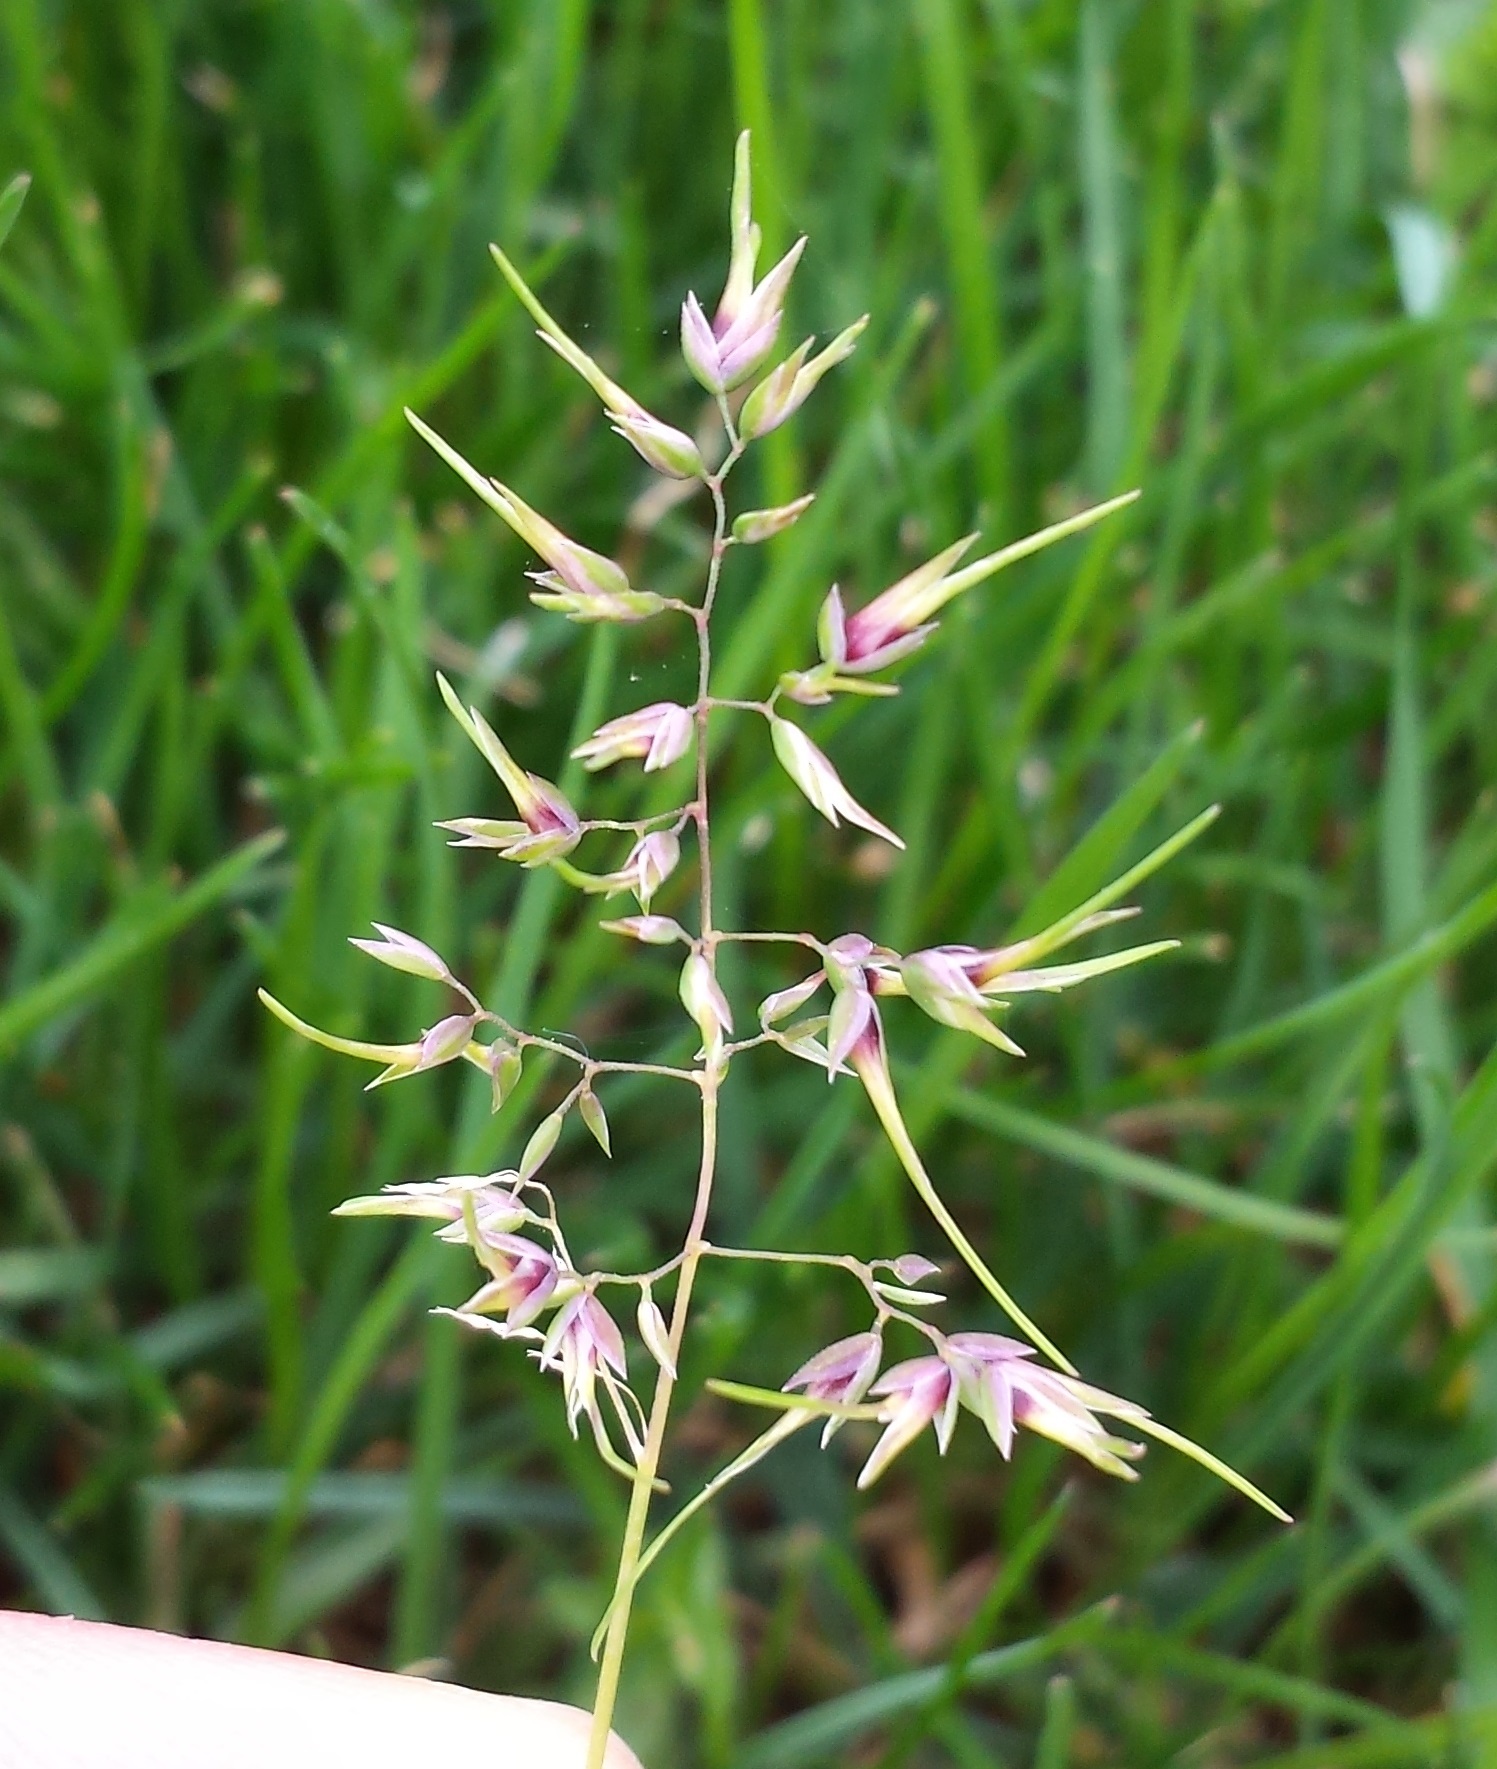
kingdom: Plantae
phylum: Tracheophyta
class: Liliopsida
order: Poales
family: Poaceae
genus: Poa
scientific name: Poa bulbosa
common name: Bulbous bluegrass
